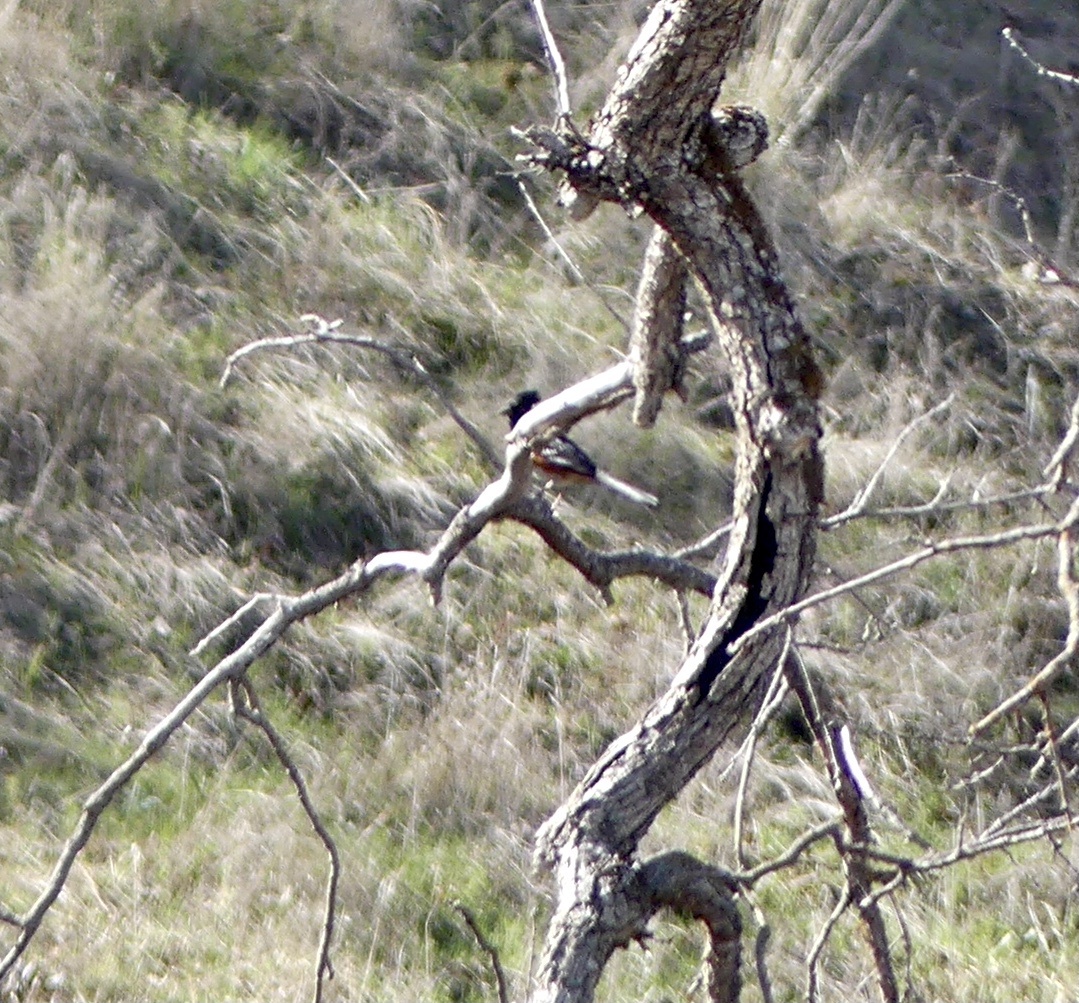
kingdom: Animalia
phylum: Chordata
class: Aves
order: Passeriformes
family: Passerellidae
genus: Pipilo
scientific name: Pipilo maculatus
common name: Spotted towhee
